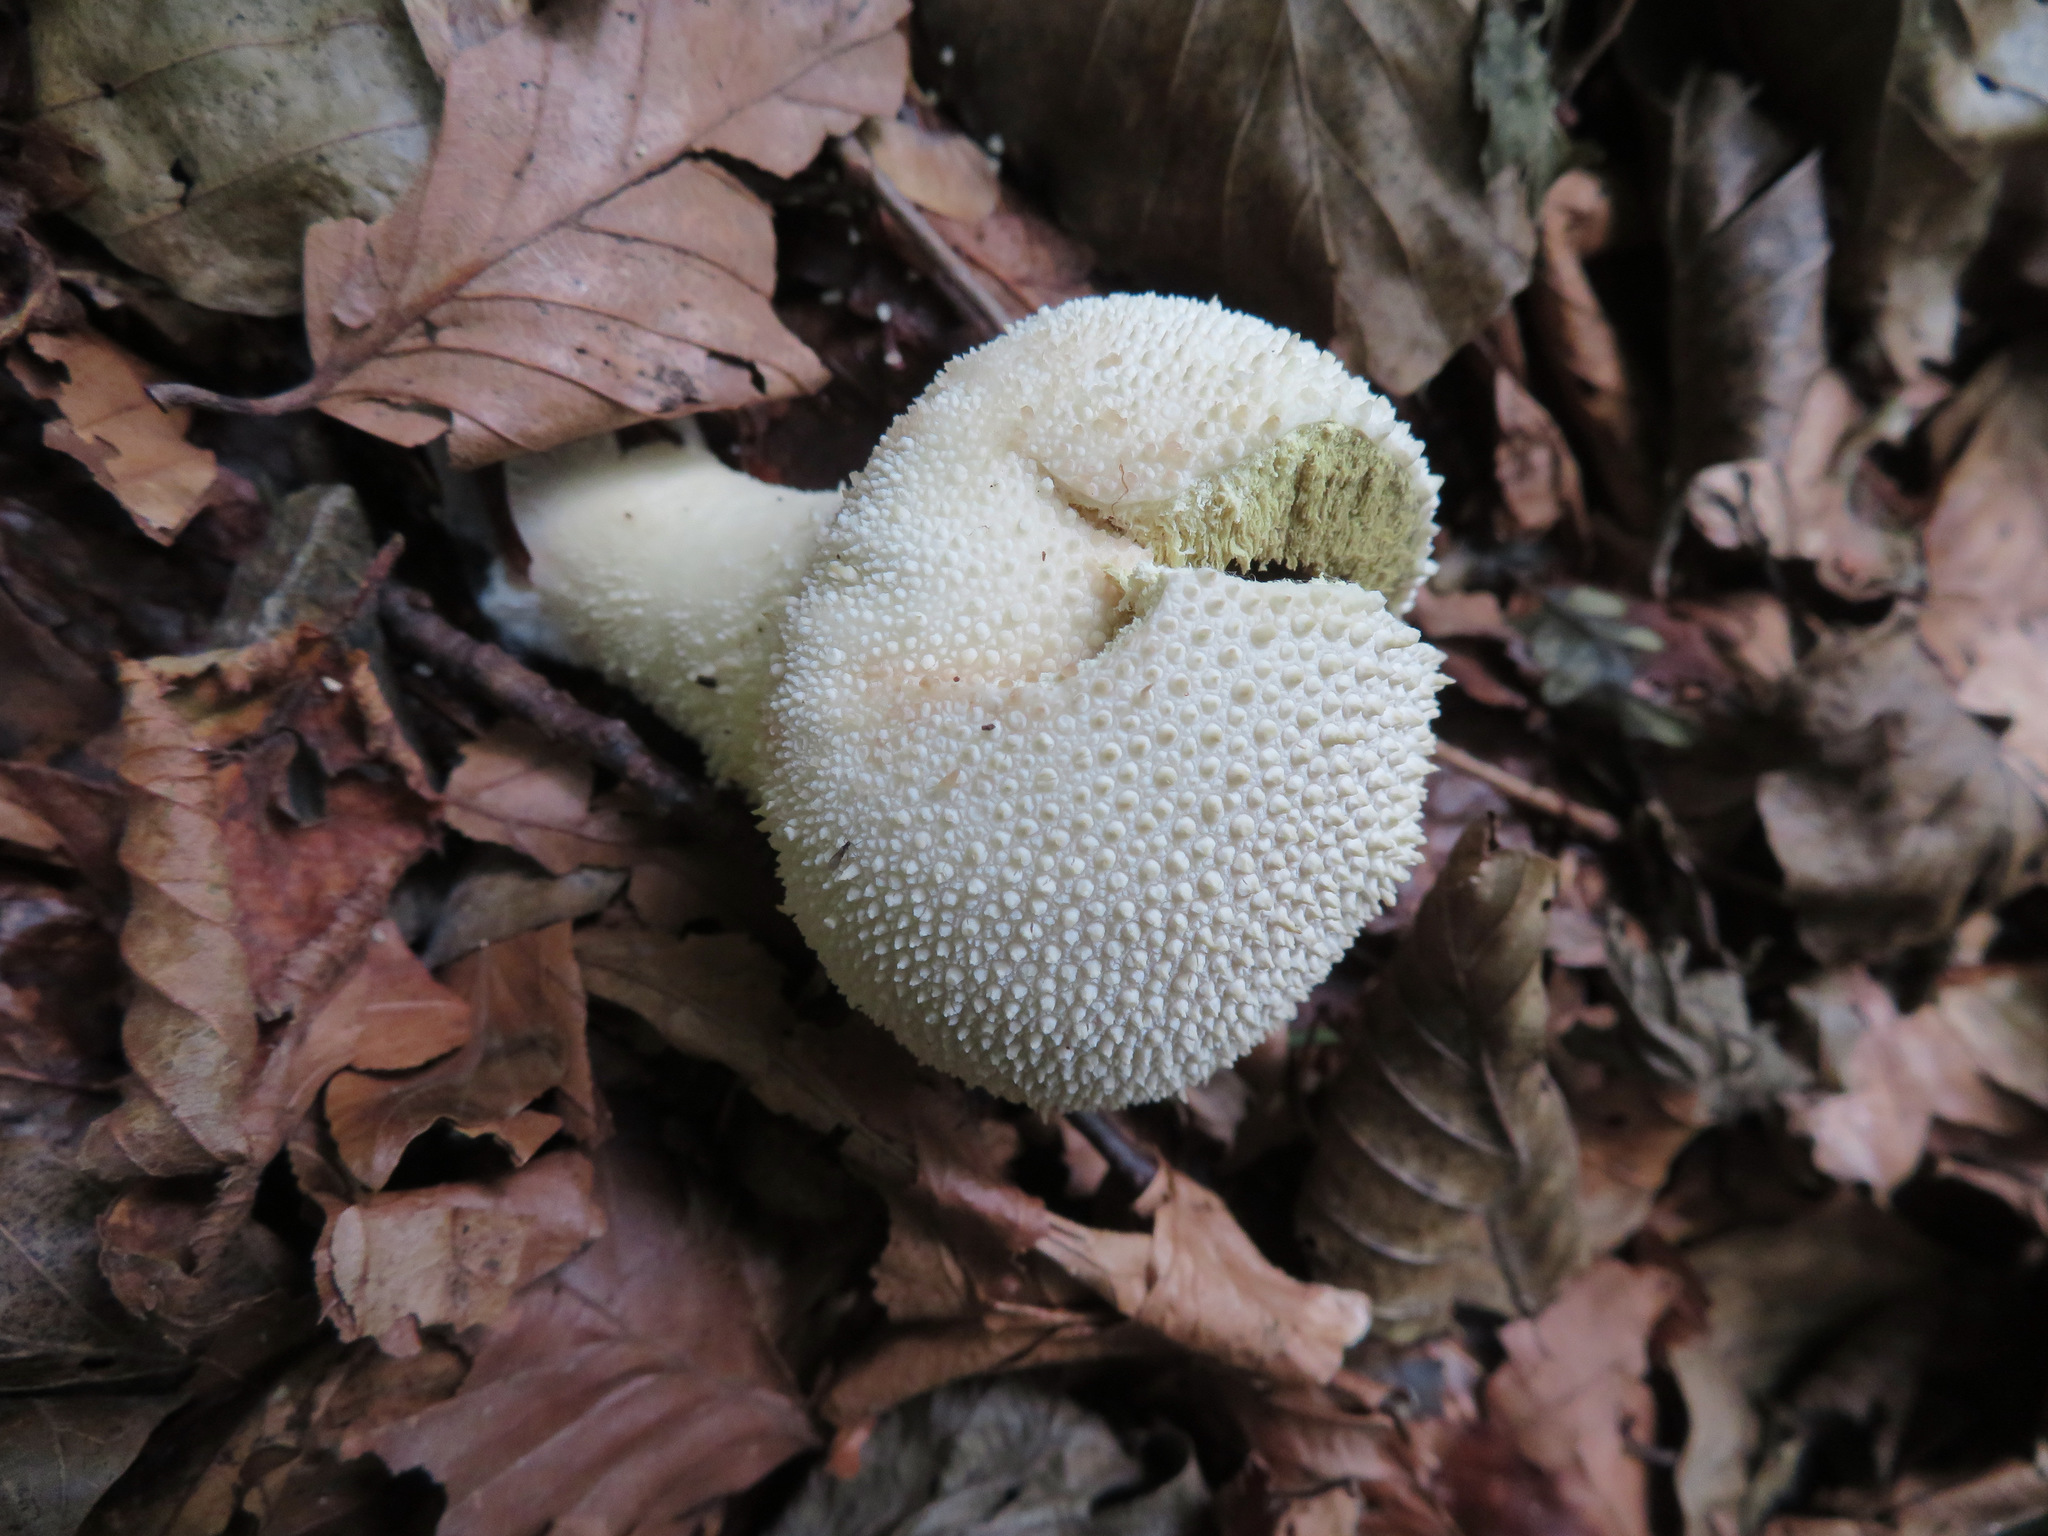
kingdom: Fungi
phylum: Basidiomycota
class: Agaricomycetes
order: Agaricales
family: Lycoperdaceae
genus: Lycoperdon
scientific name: Lycoperdon perlatum
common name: Common puffball
